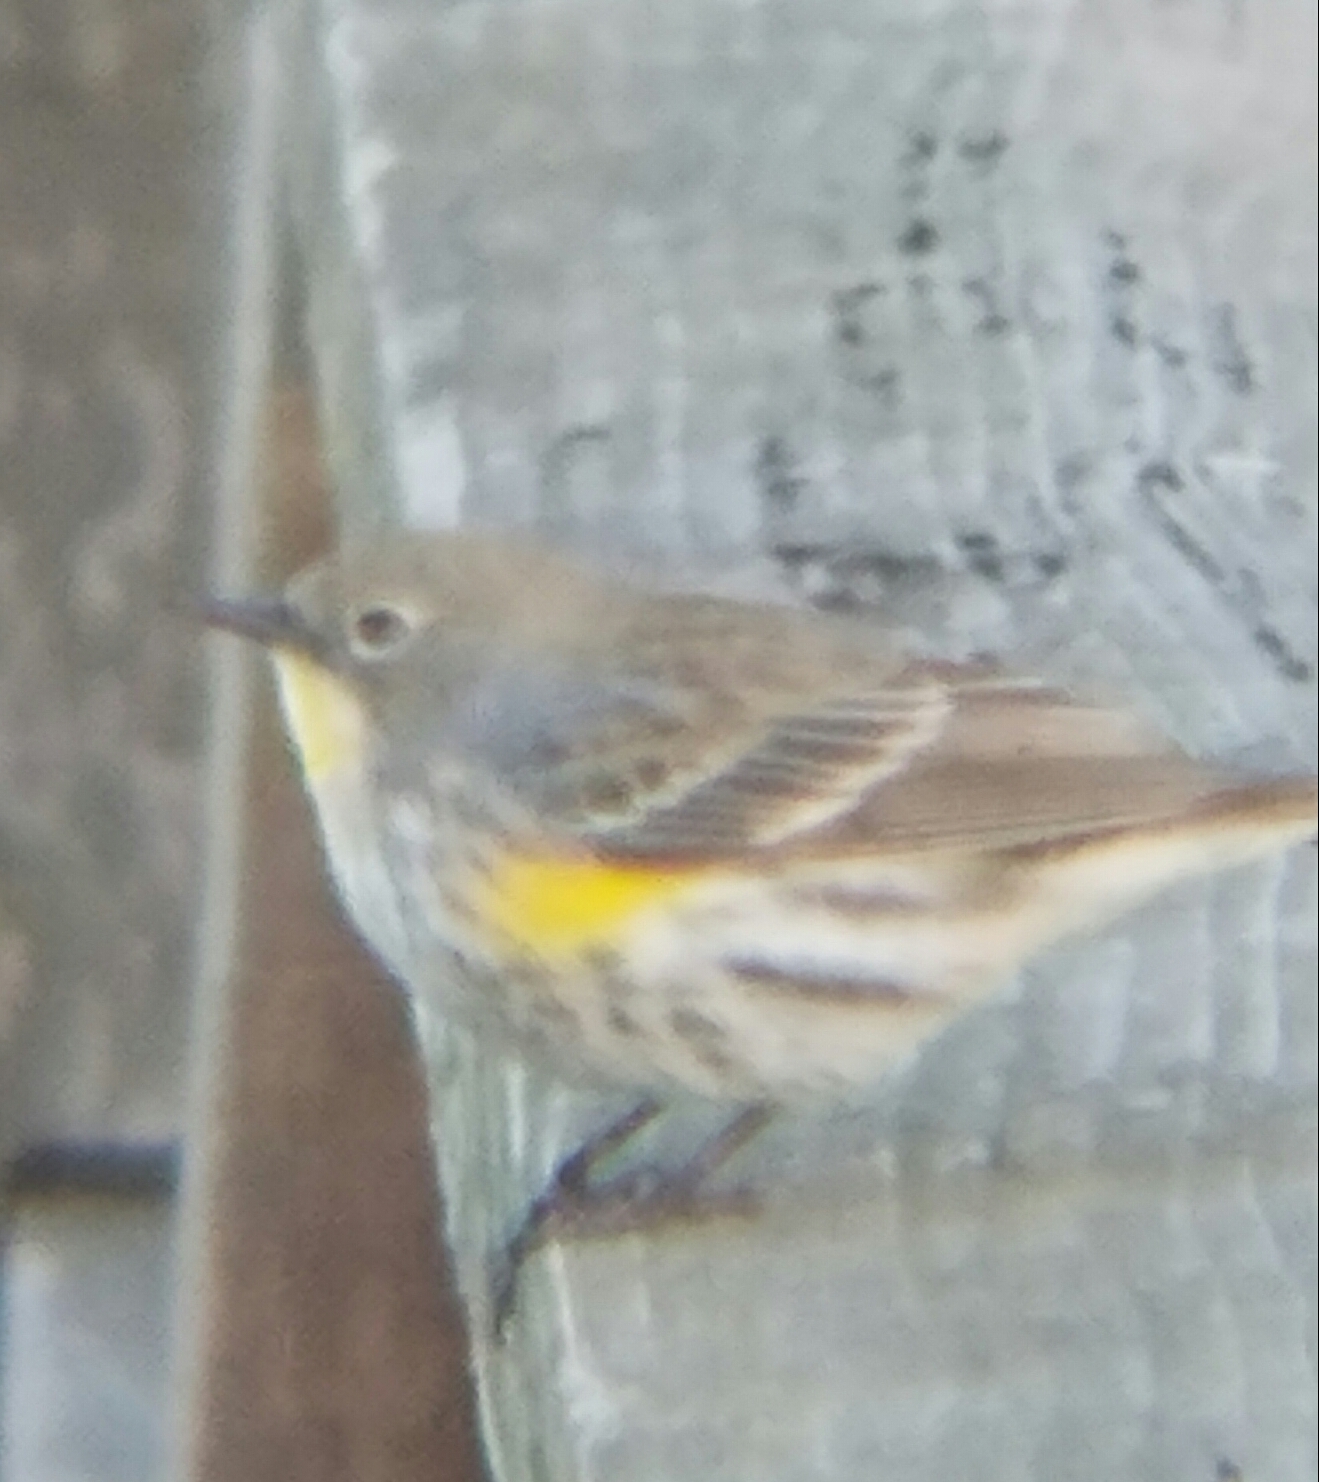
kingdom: Animalia
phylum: Chordata
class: Aves
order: Passeriformes
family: Parulidae
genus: Setophaga
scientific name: Setophaga coronata
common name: Myrtle warbler
